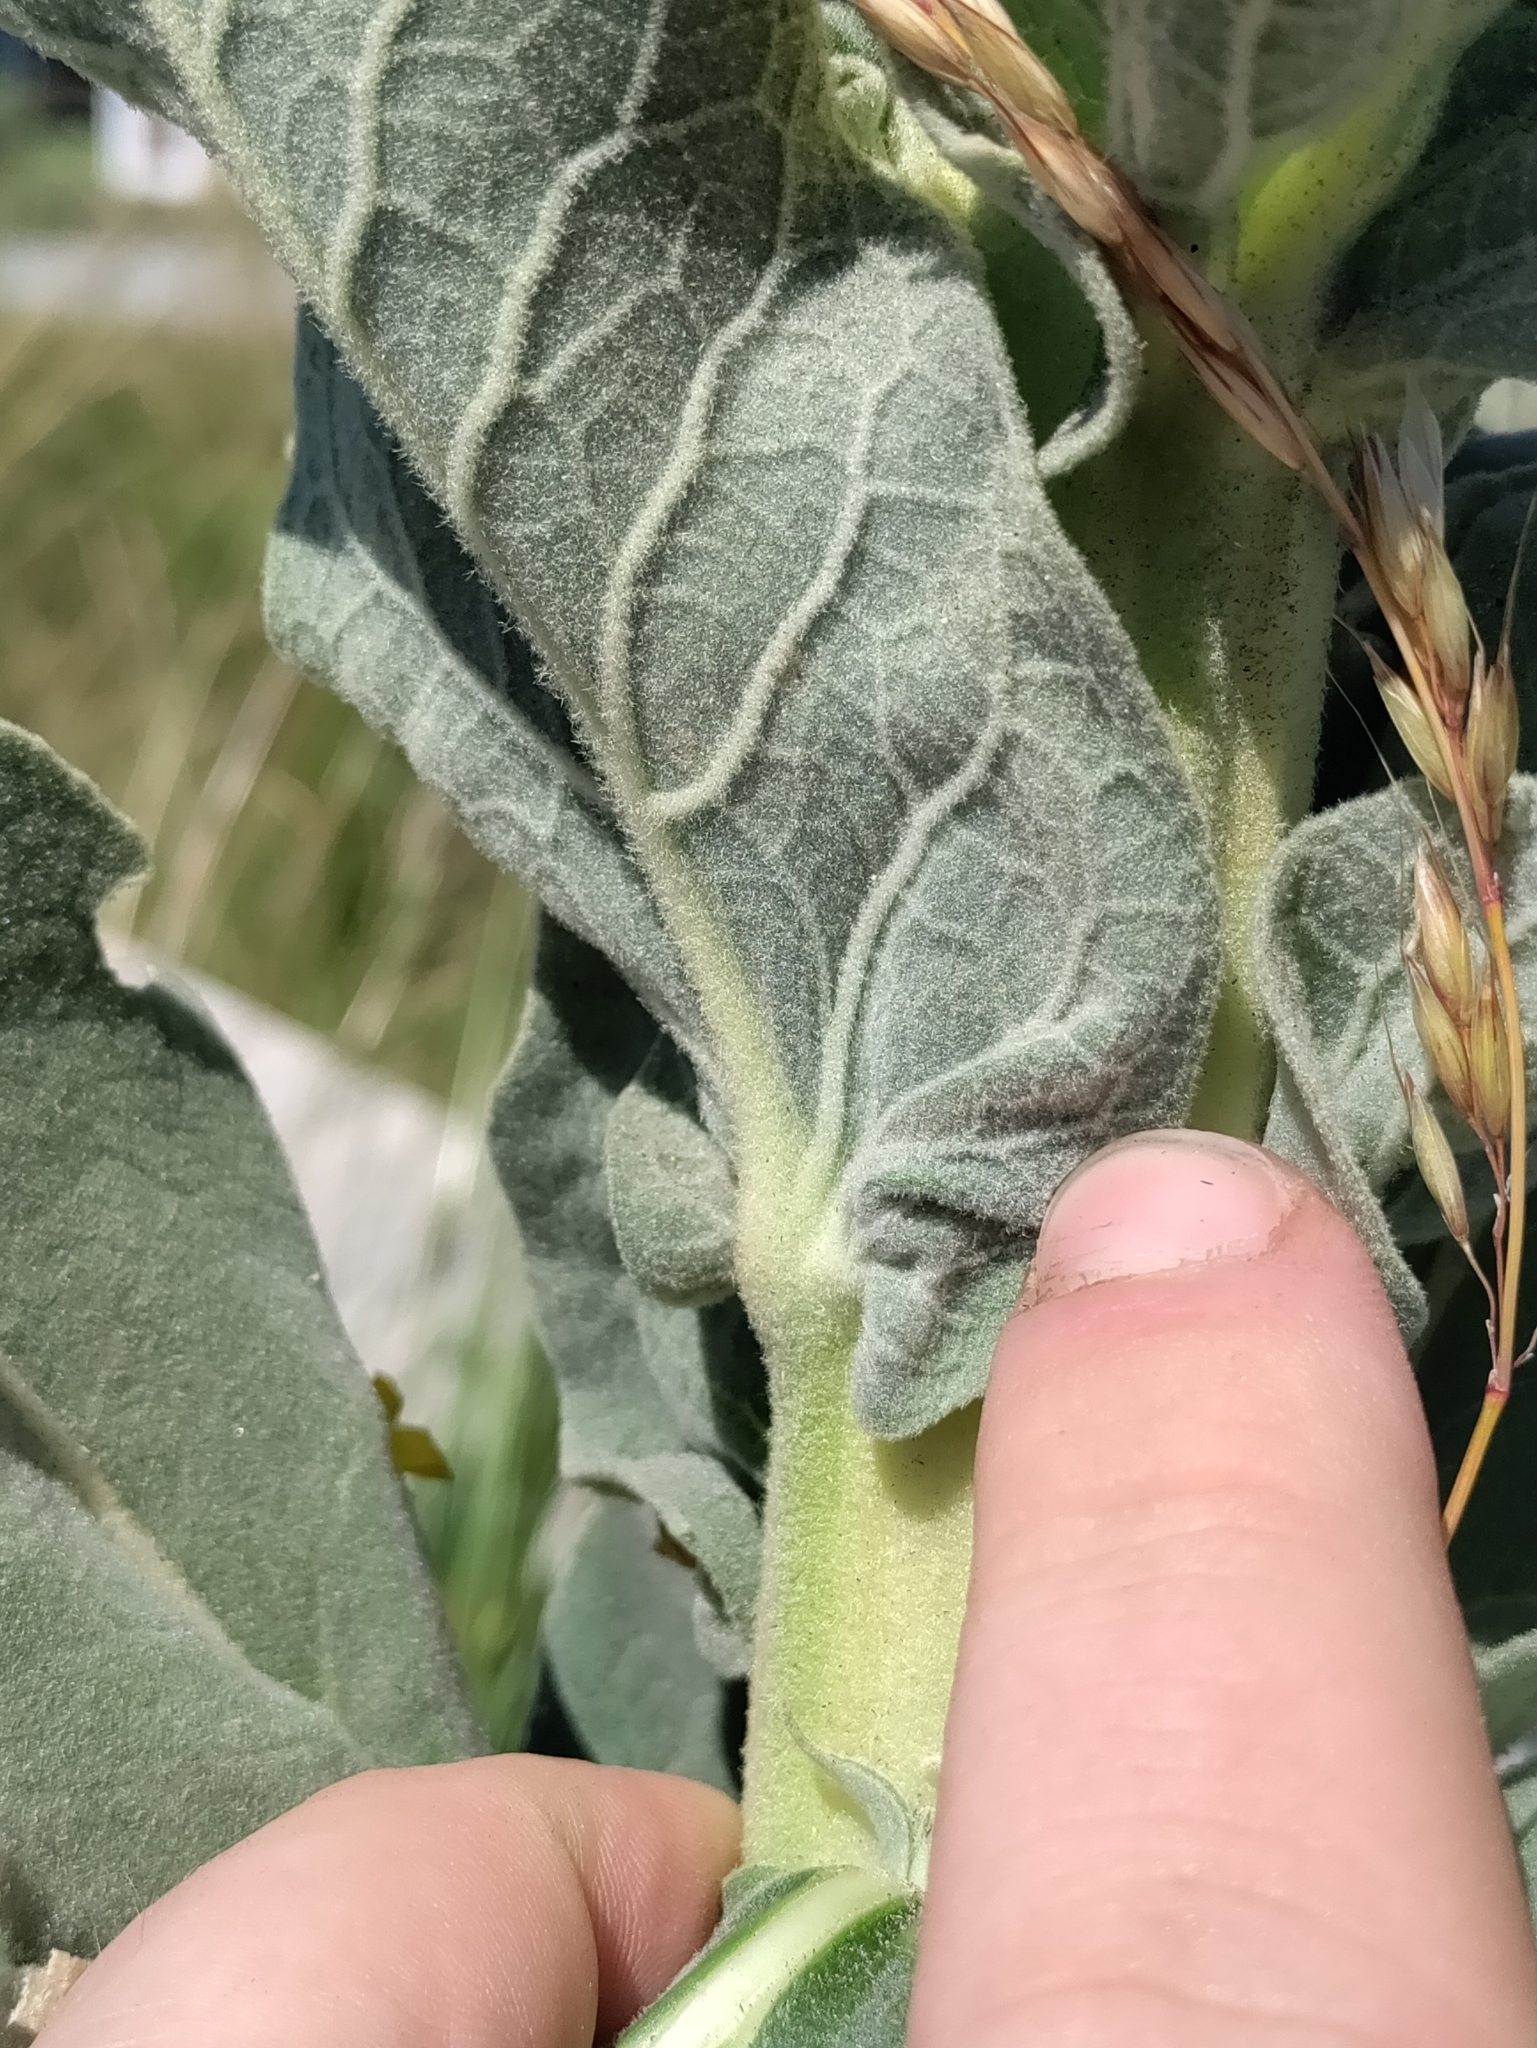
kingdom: Plantae
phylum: Tracheophyta
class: Magnoliopsida
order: Lamiales
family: Scrophulariaceae
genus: Verbascum
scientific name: Verbascum speciosum
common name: Hungarian mullein
